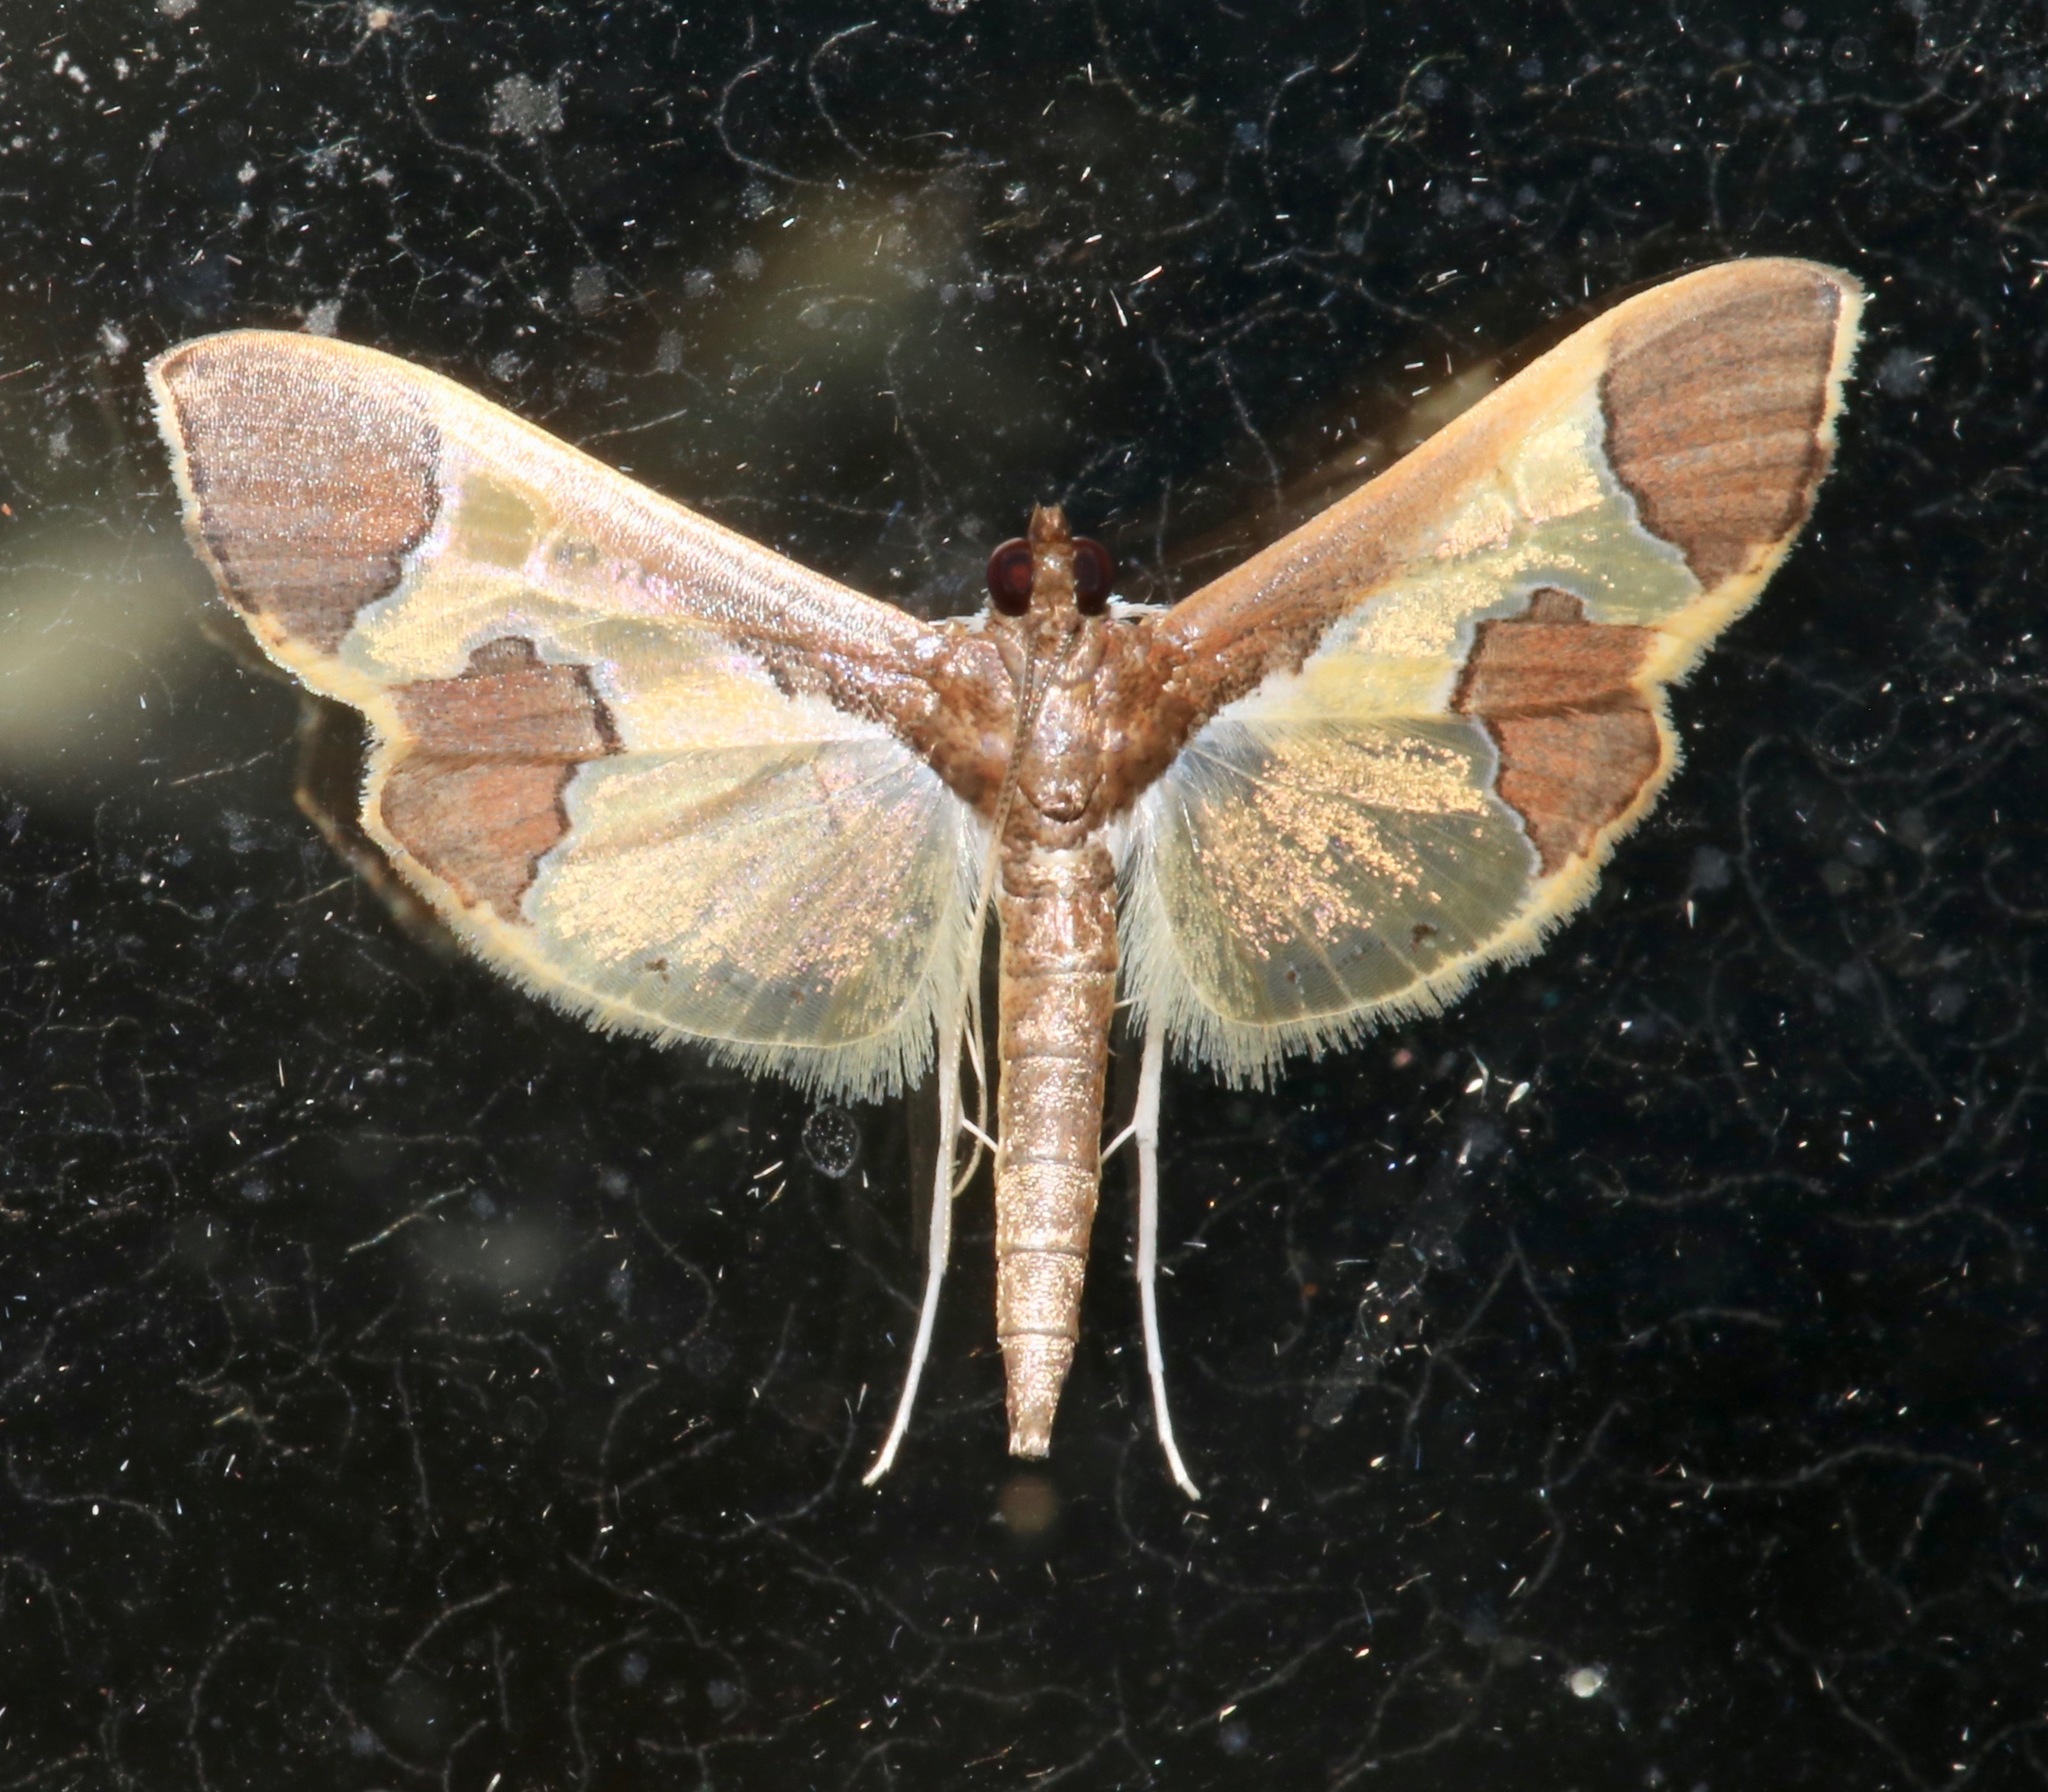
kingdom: Animalia
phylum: Arthropoda
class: Insecta
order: Lepidoptera
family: Crambidae
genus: Syllepis
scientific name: Syllepis marialis
